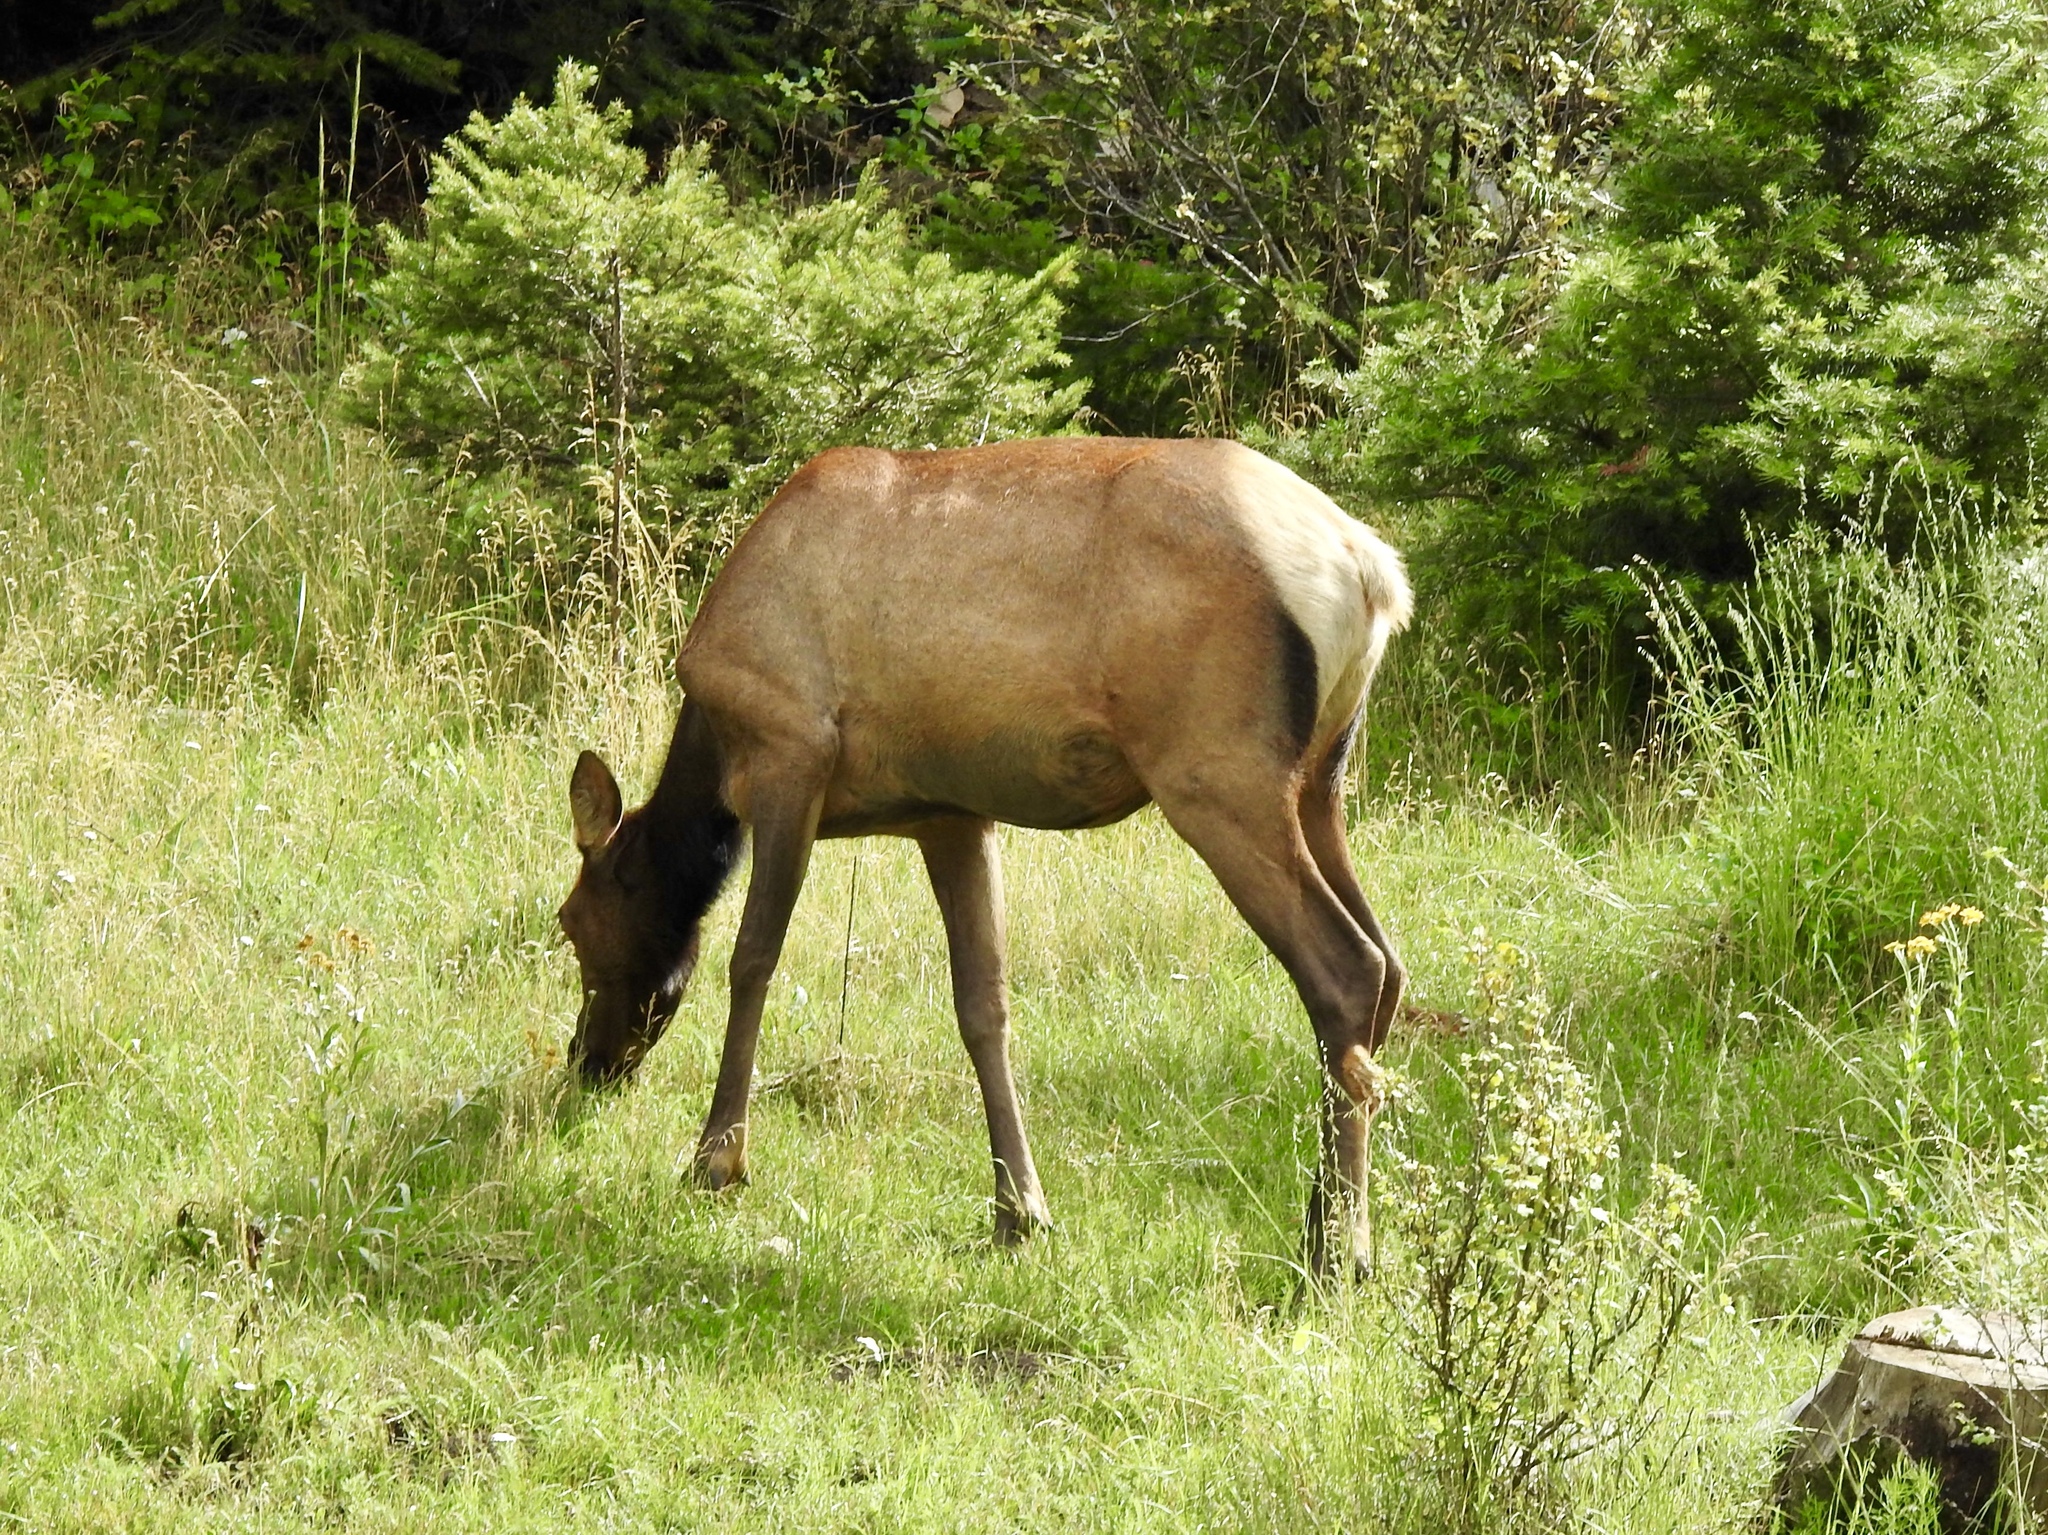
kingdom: Animalia
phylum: Chordata
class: Mammalia
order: Artiodactyla
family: Cervidae
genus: Cervus
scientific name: Cervus elaphus
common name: Red deer
